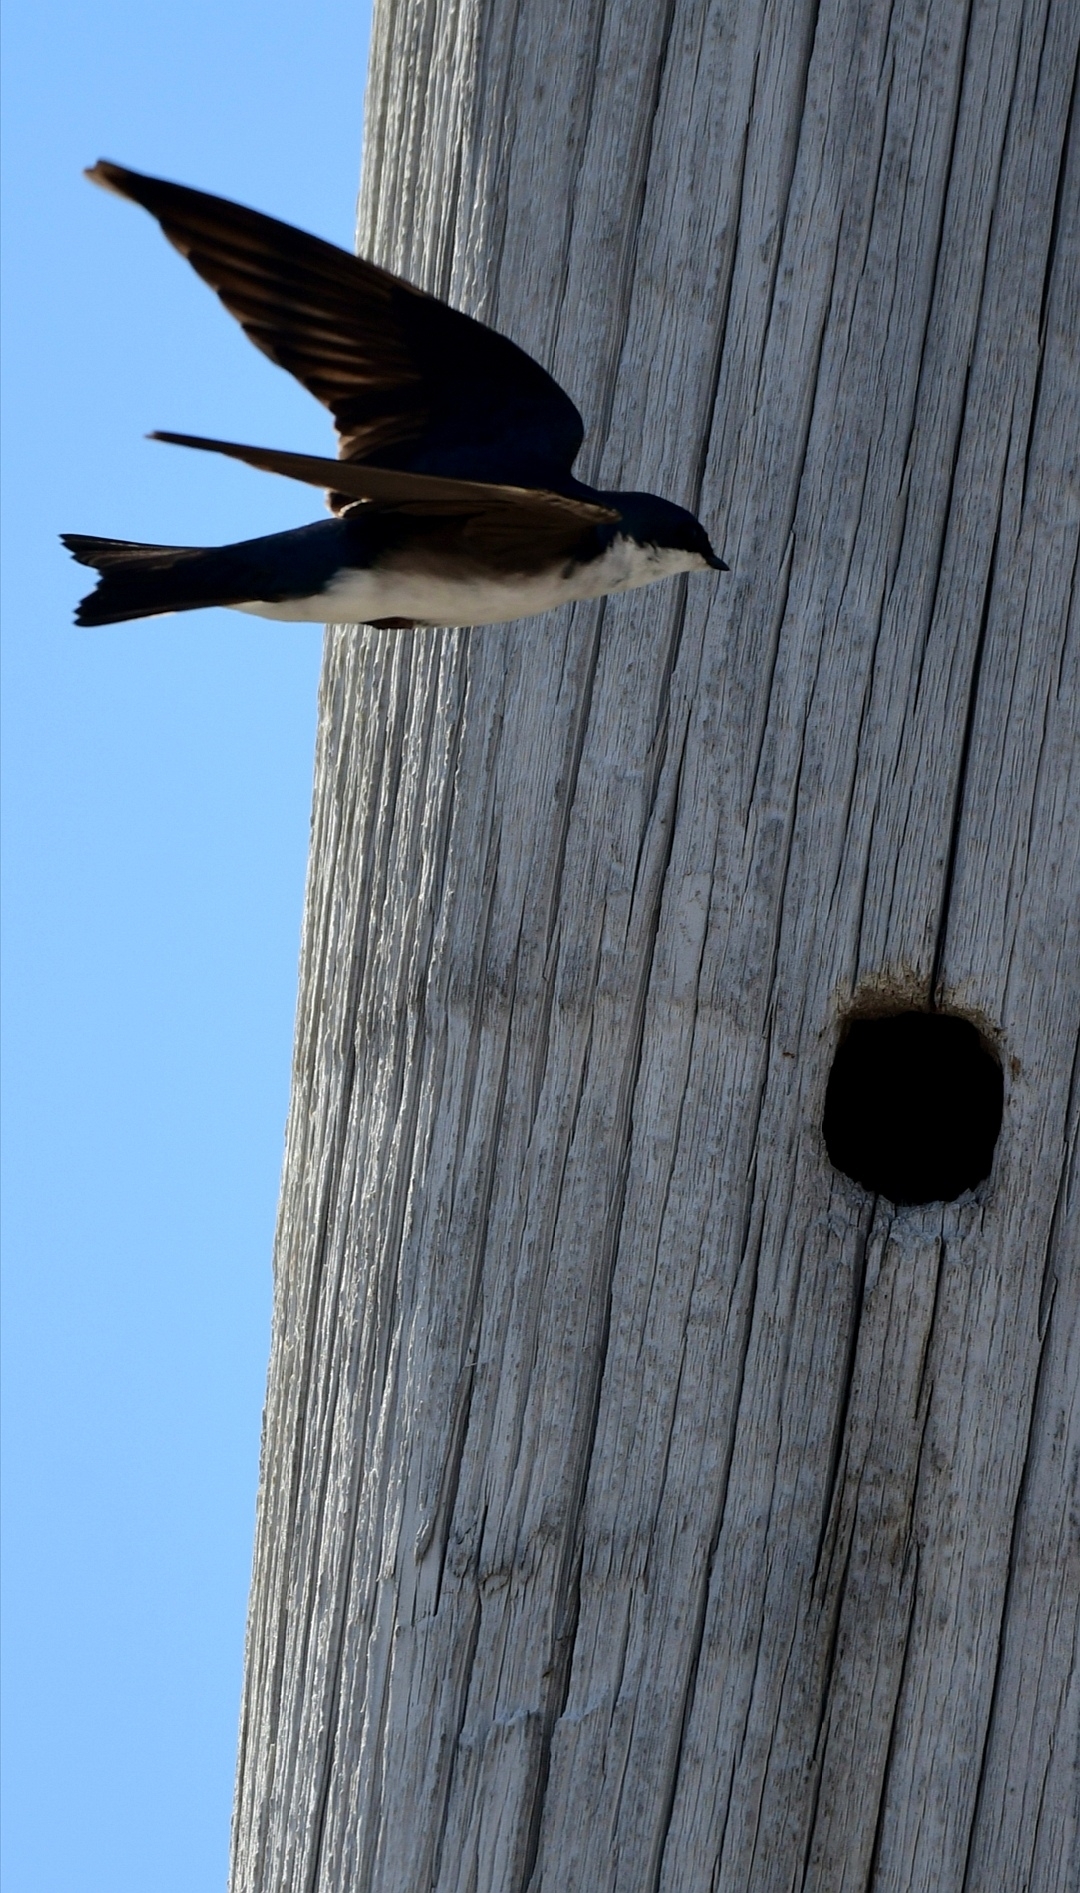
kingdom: Animalia
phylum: Chordata
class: Aves
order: Passeriformes
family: Hirundinidae
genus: Tachycineta
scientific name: Tachycineta bicolor
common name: Tree swallow
